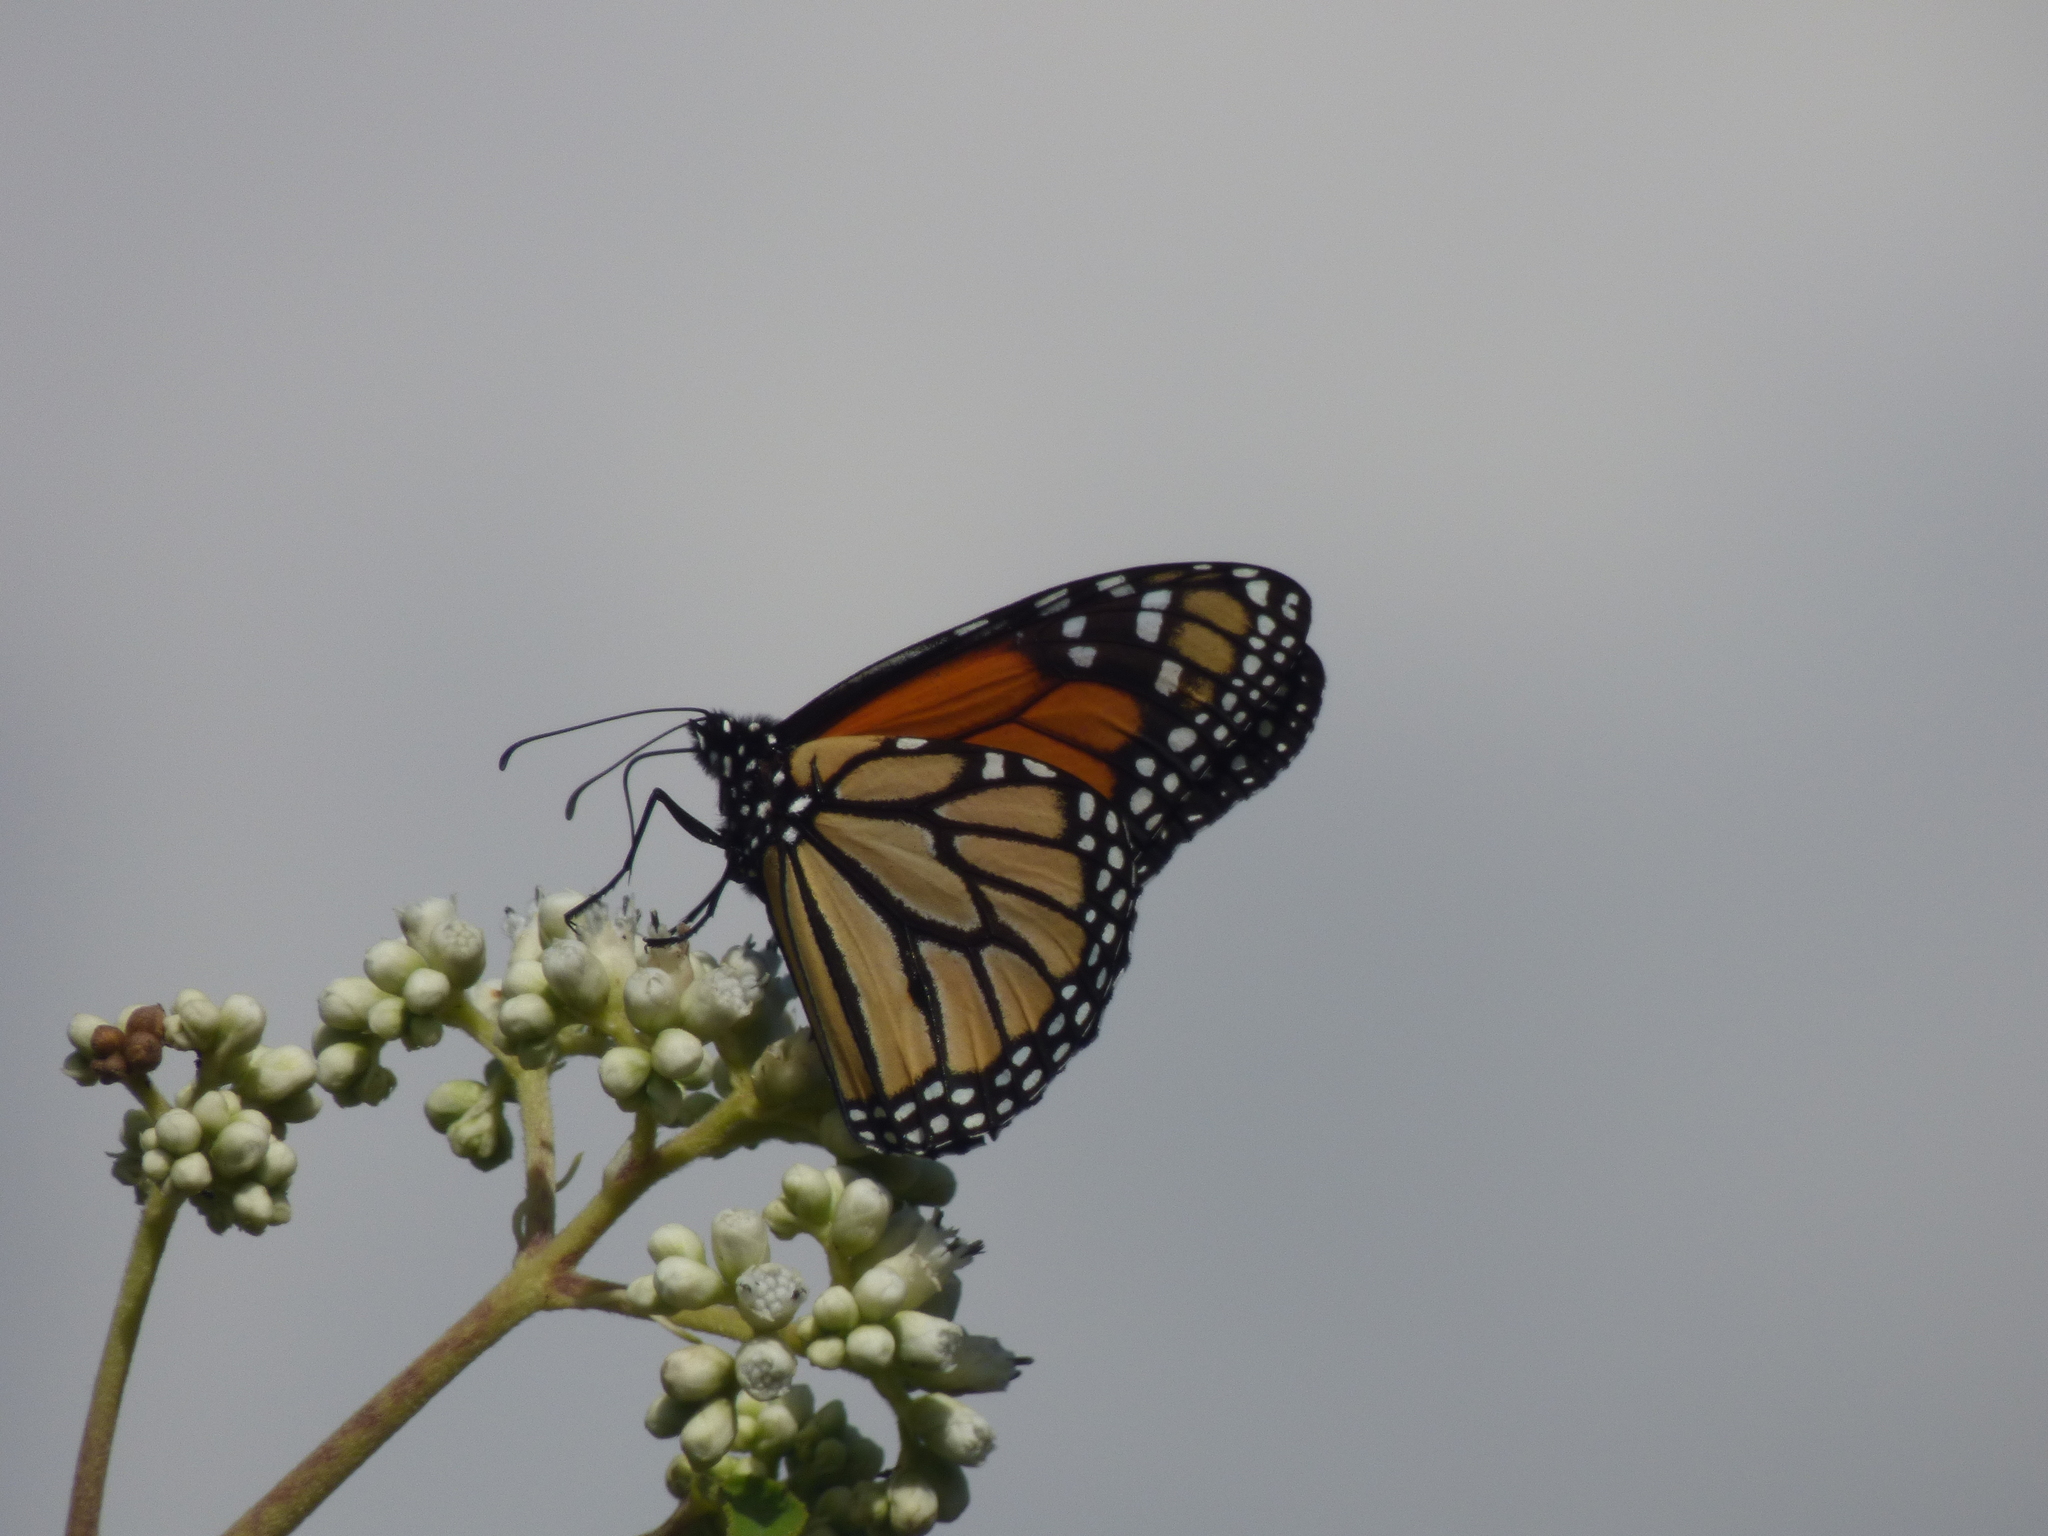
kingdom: Animalia
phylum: Arthropoda
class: Insecta
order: Lepidoptera
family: Nymphalidae
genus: Danaus
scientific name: Danaus plexippus
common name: Monarch
